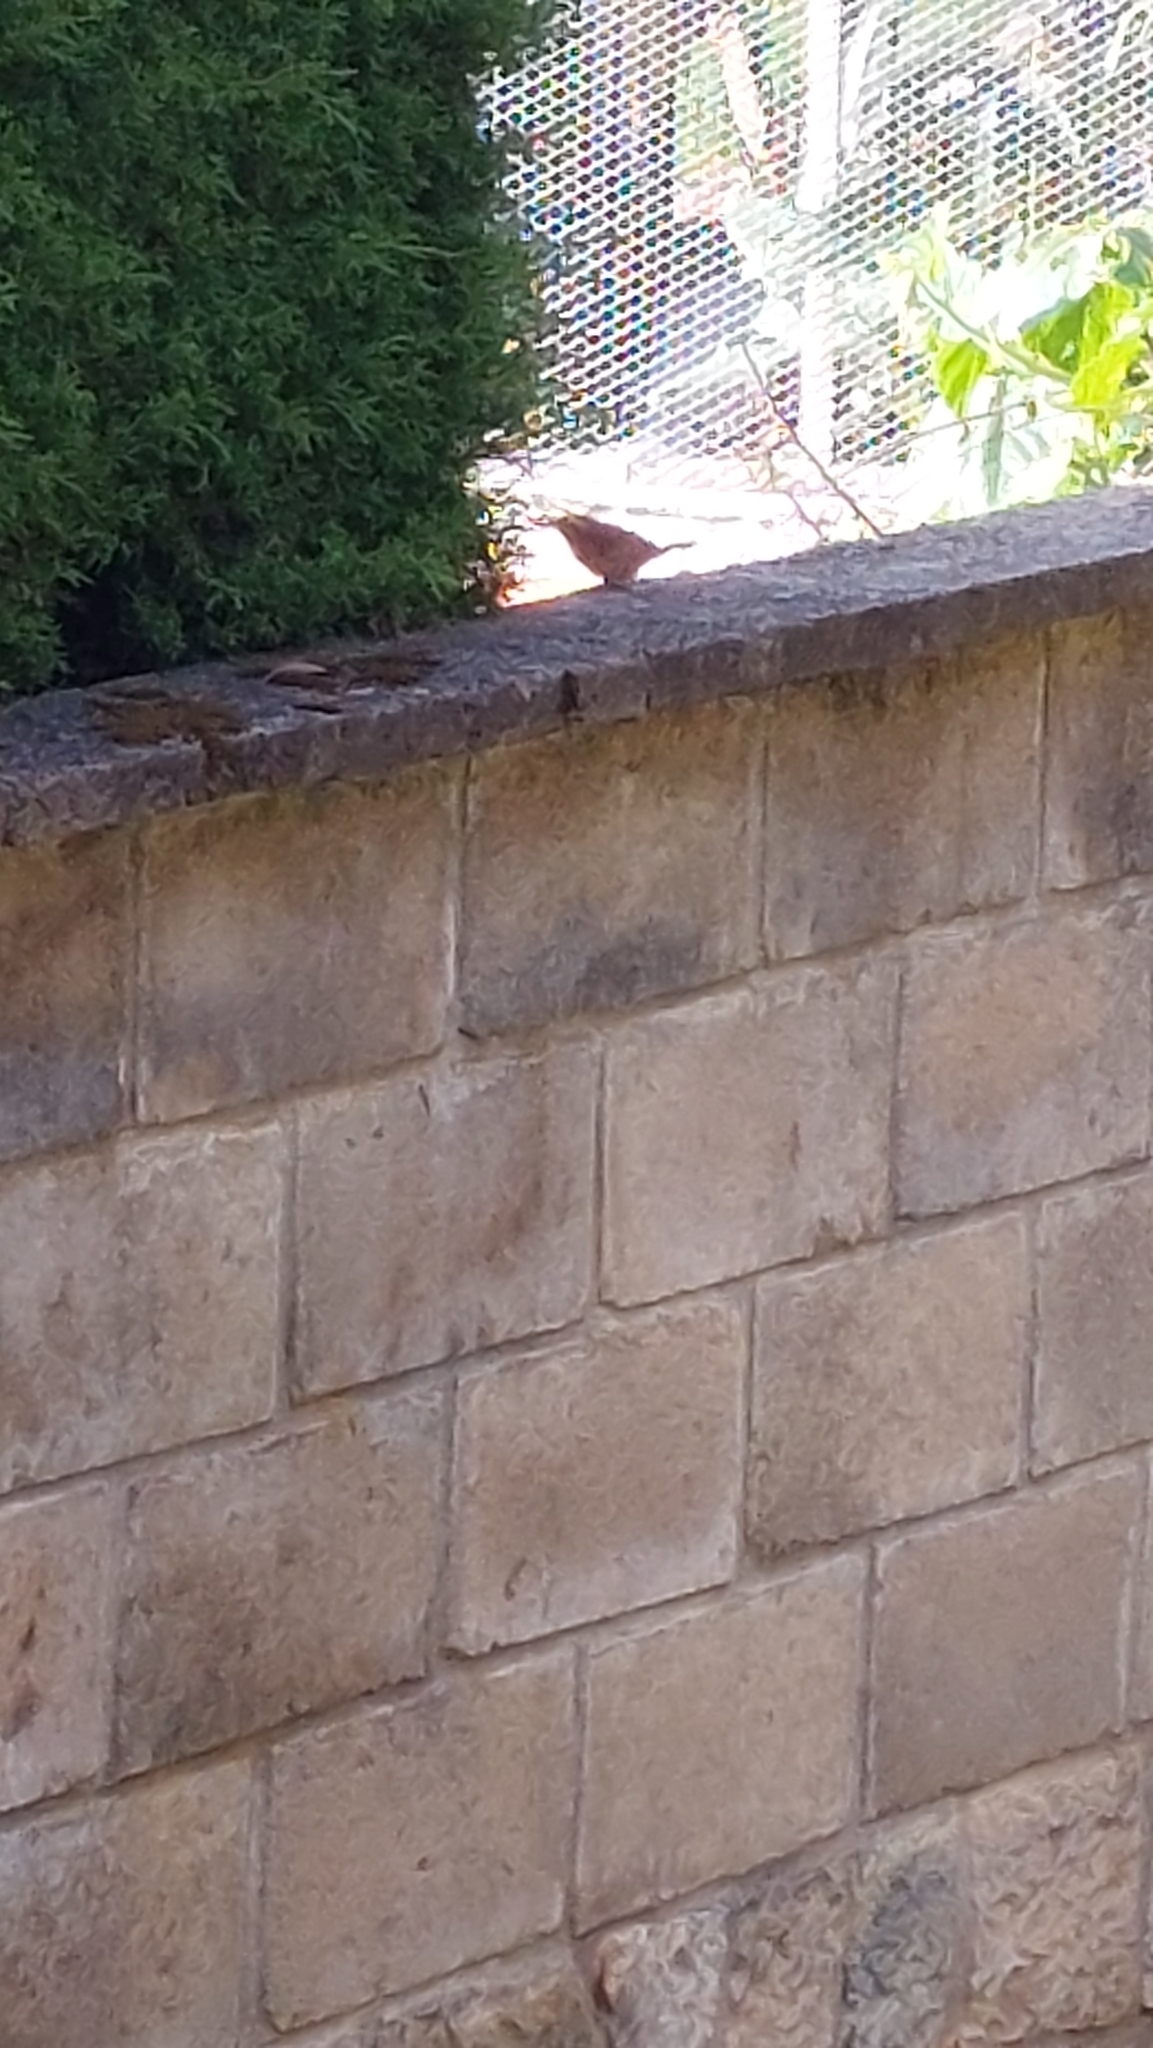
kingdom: Animalia
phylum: Chordata
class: Aves
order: Passeriformes
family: Troglodytidae
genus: Troglodytes
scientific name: Troglodytes aedon
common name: House wren
